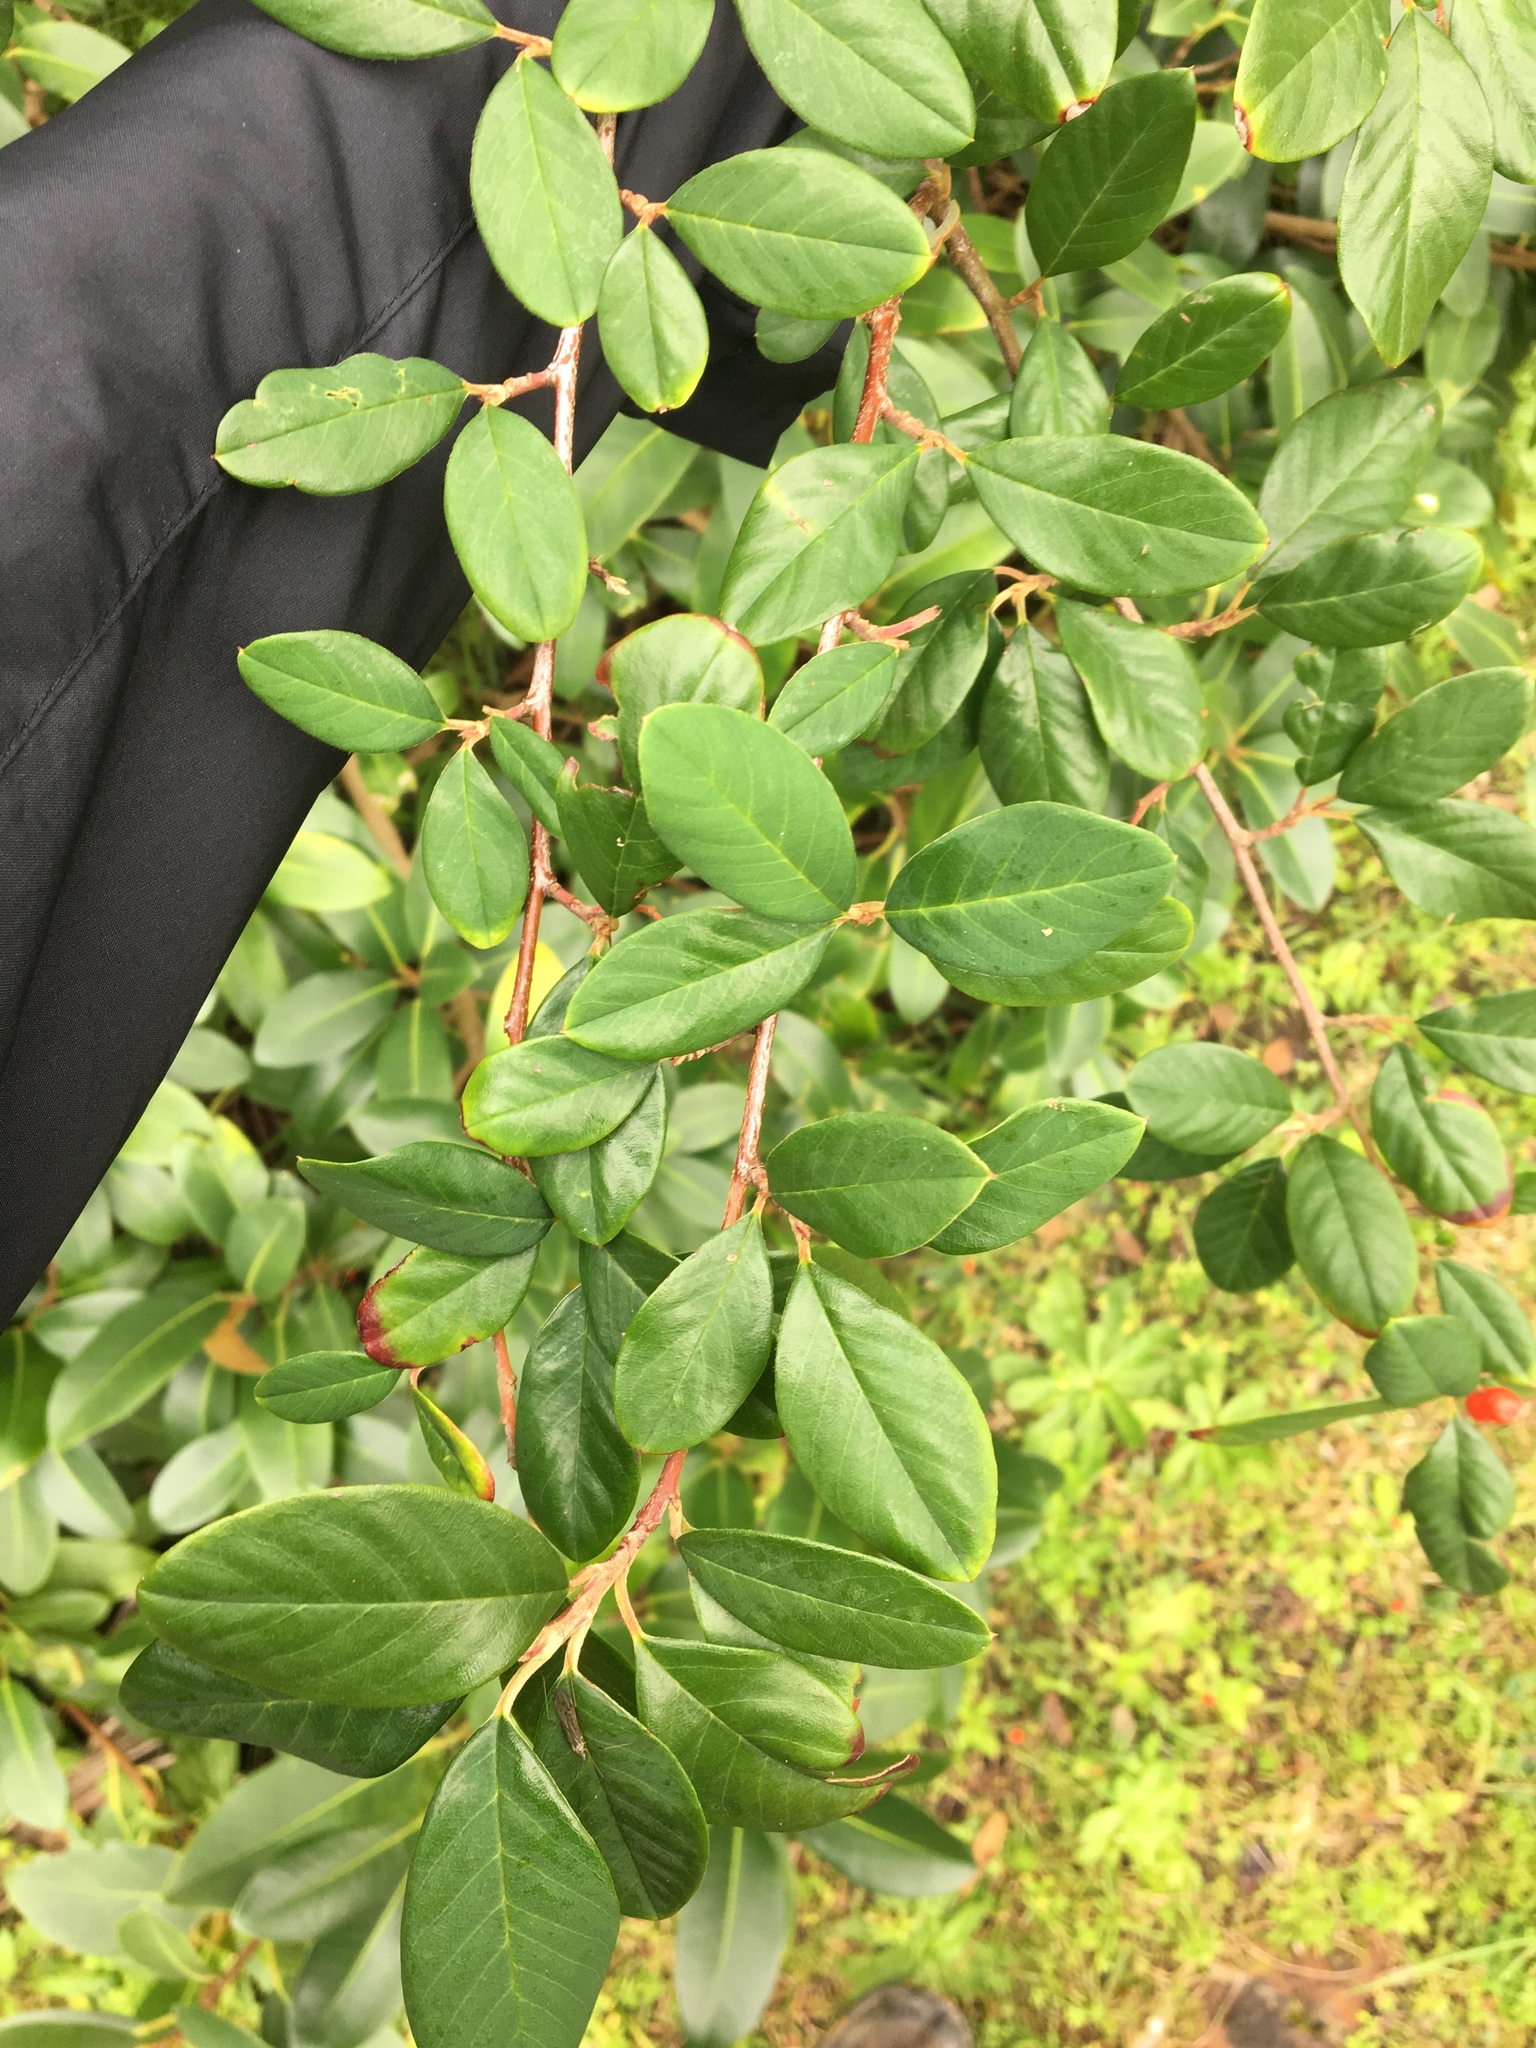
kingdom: Plantae
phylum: Tracheophyta
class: Magnoliopsida
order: Rosales
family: Rosaceae
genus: Cotoneaster
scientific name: Cotoneaster glaucophyllus
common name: Glaucous cotoneaster
